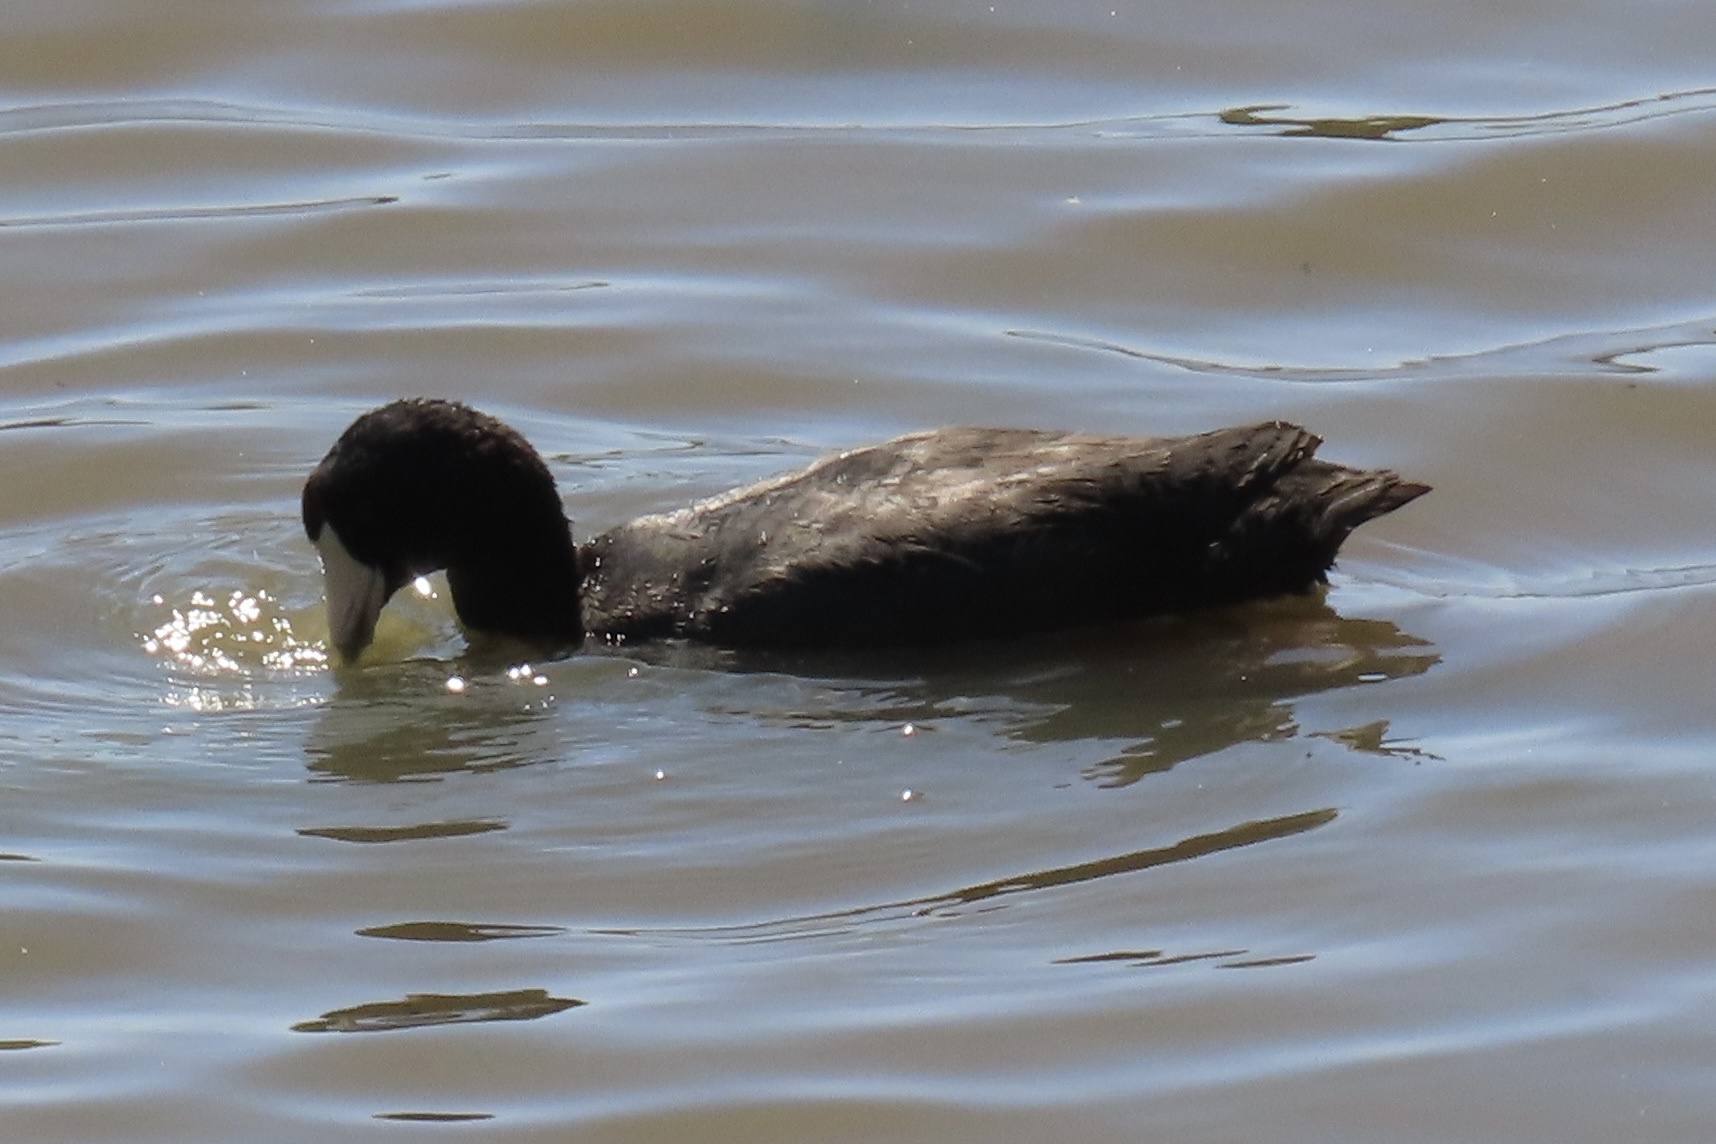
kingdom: Animalia
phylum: Chordata
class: Aves
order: Gruiformes
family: Rallidae
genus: Fulica
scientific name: Fulica americana
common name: American coot
